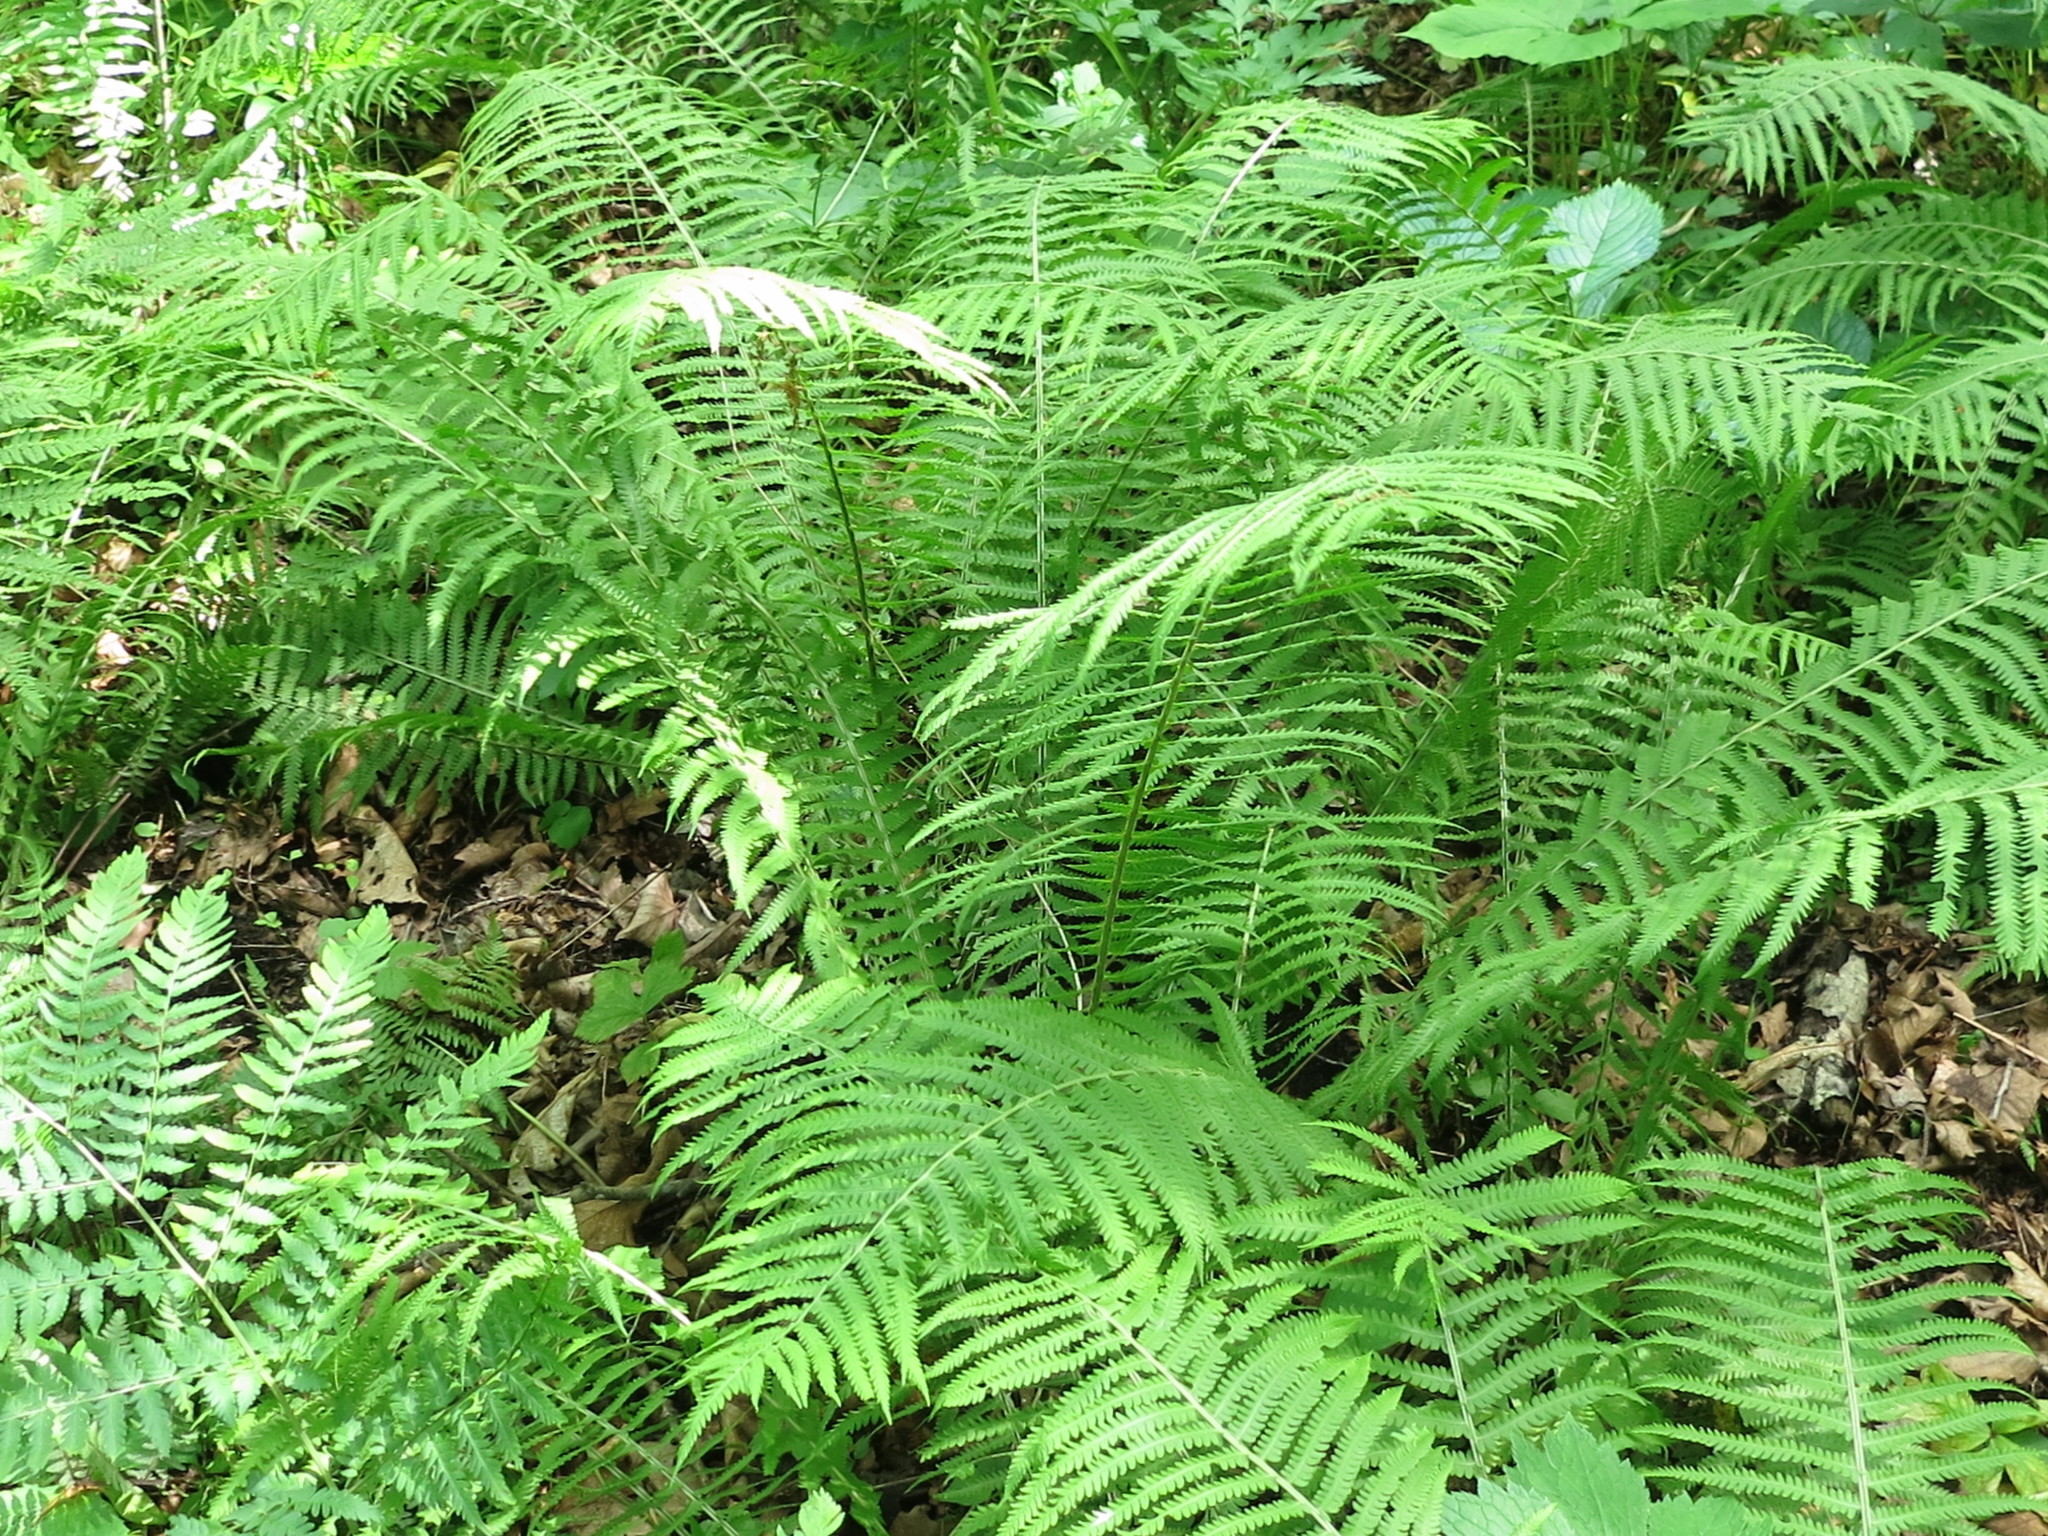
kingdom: Plantae
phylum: Tracheophyta
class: Polypodiopsida
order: Polypodiales
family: Onocleaceae
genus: Matteuccia
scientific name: Matteuccia struthiopteris
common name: Ostrich fern
